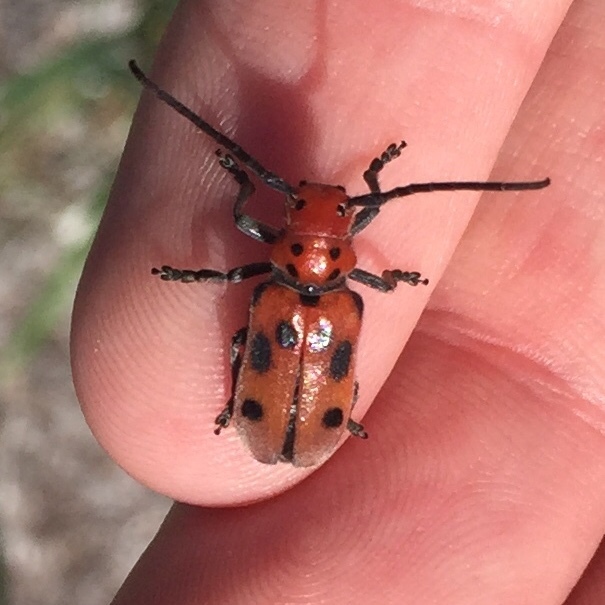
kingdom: Animalia
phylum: Arthropoda
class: Insecta
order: Coleoptera
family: Cerambycidae
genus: Tetraopes
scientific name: Tetraopes tetrophthalmus
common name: Red milkweed beetle
